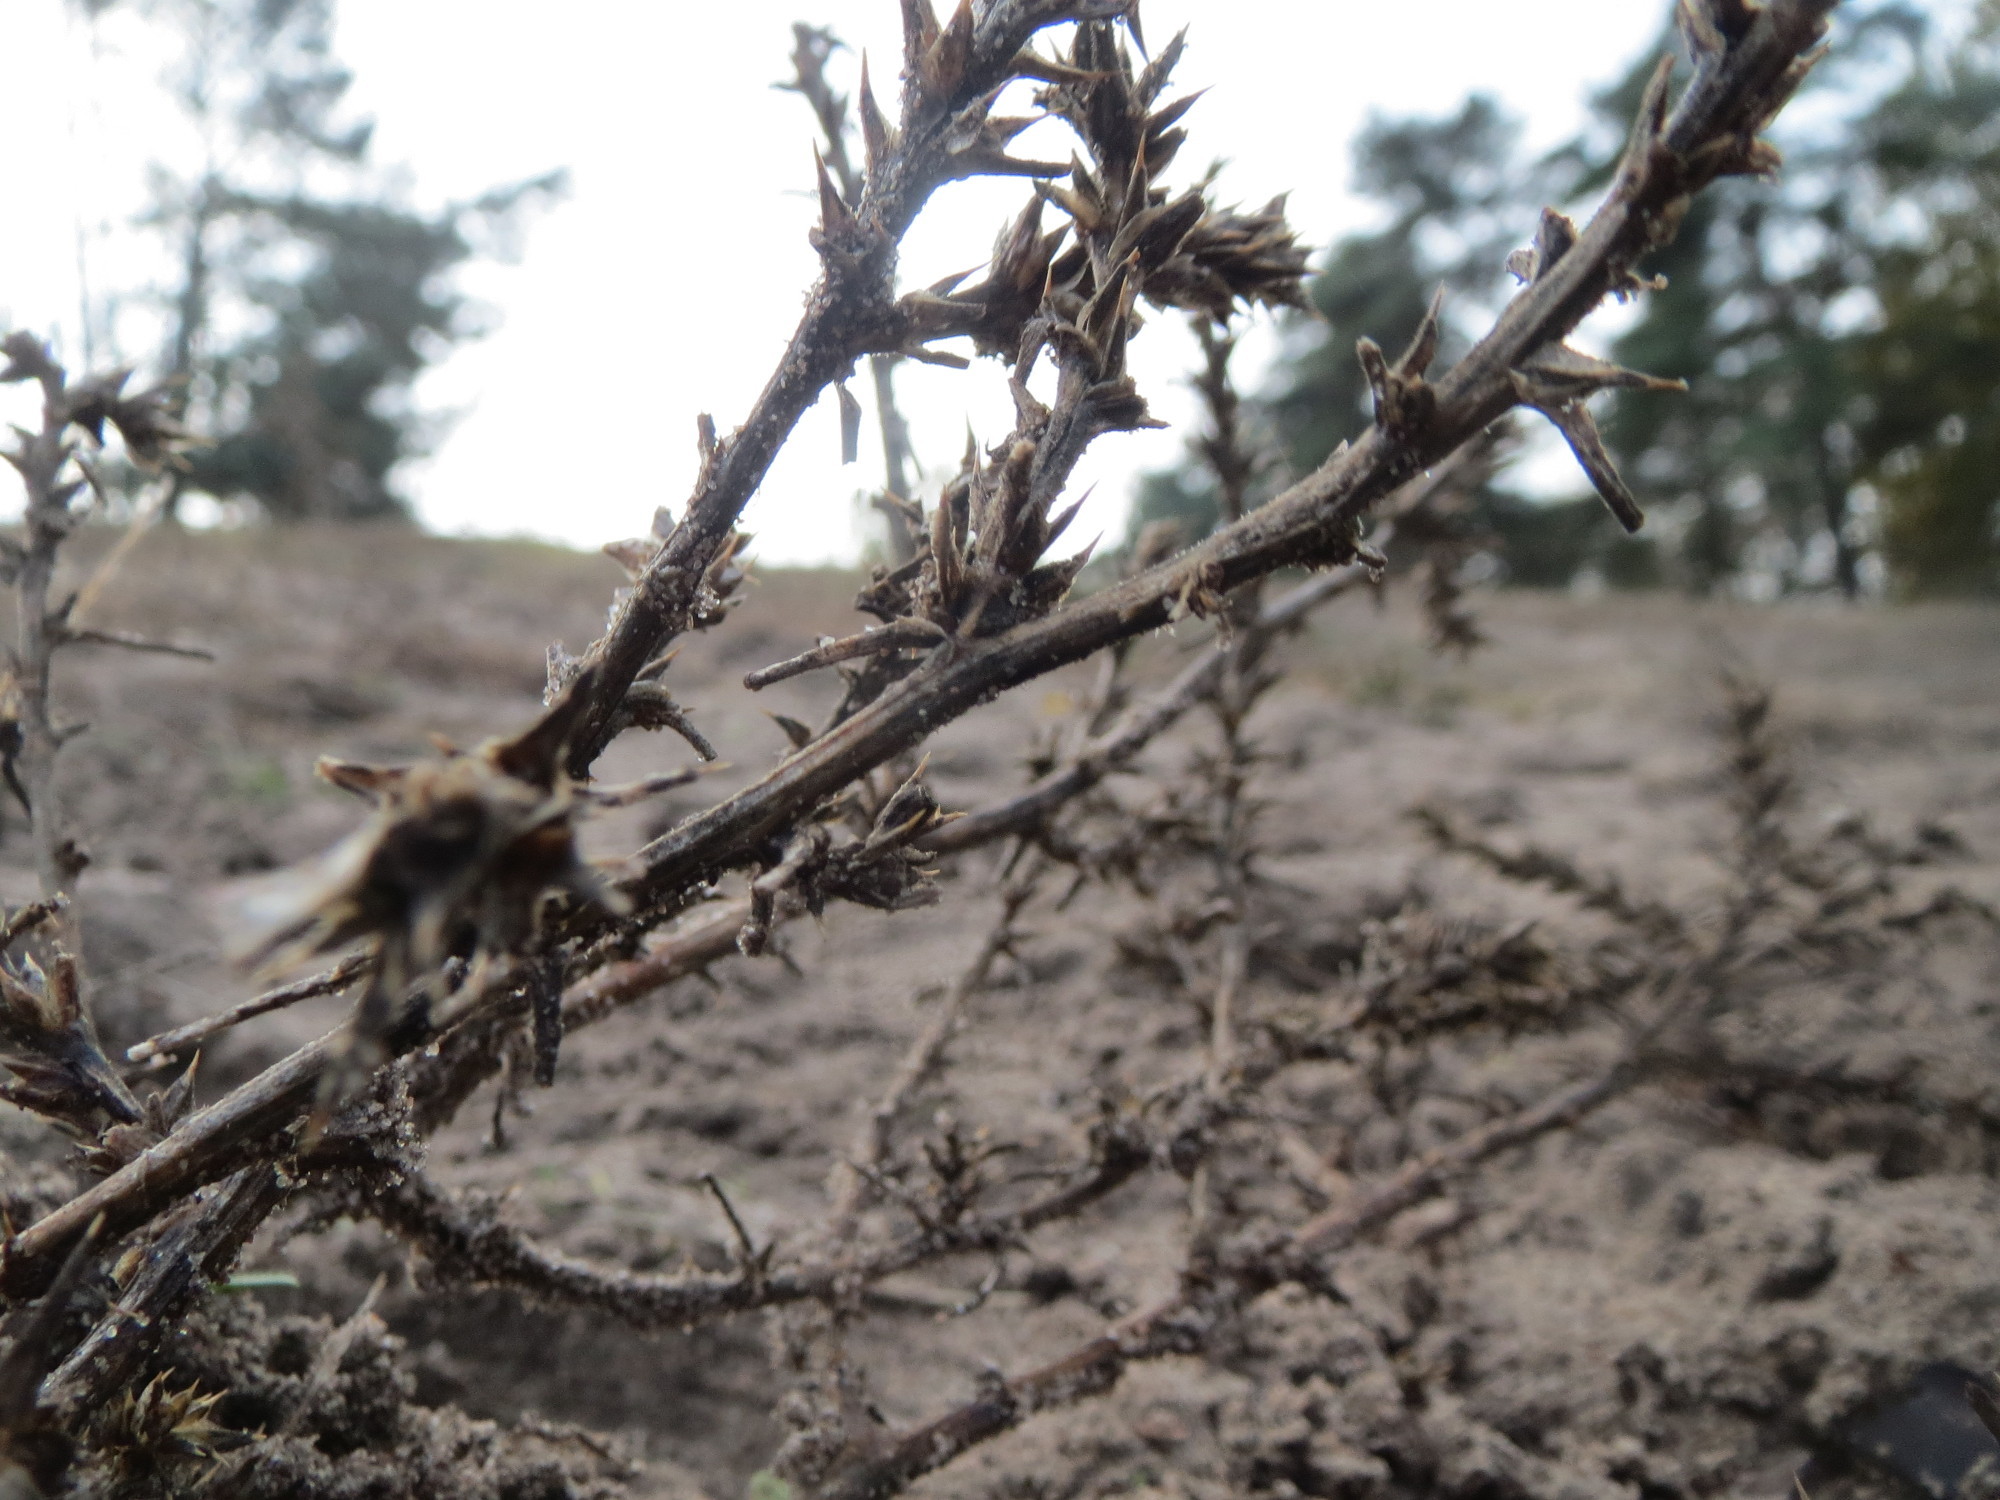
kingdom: Plantae
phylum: Tracheophyta
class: Magnoliopsida
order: Caryophyllales
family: Amaranthaceae
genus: Salsola
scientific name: Salsola tragus
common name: Prickly russian thistle
